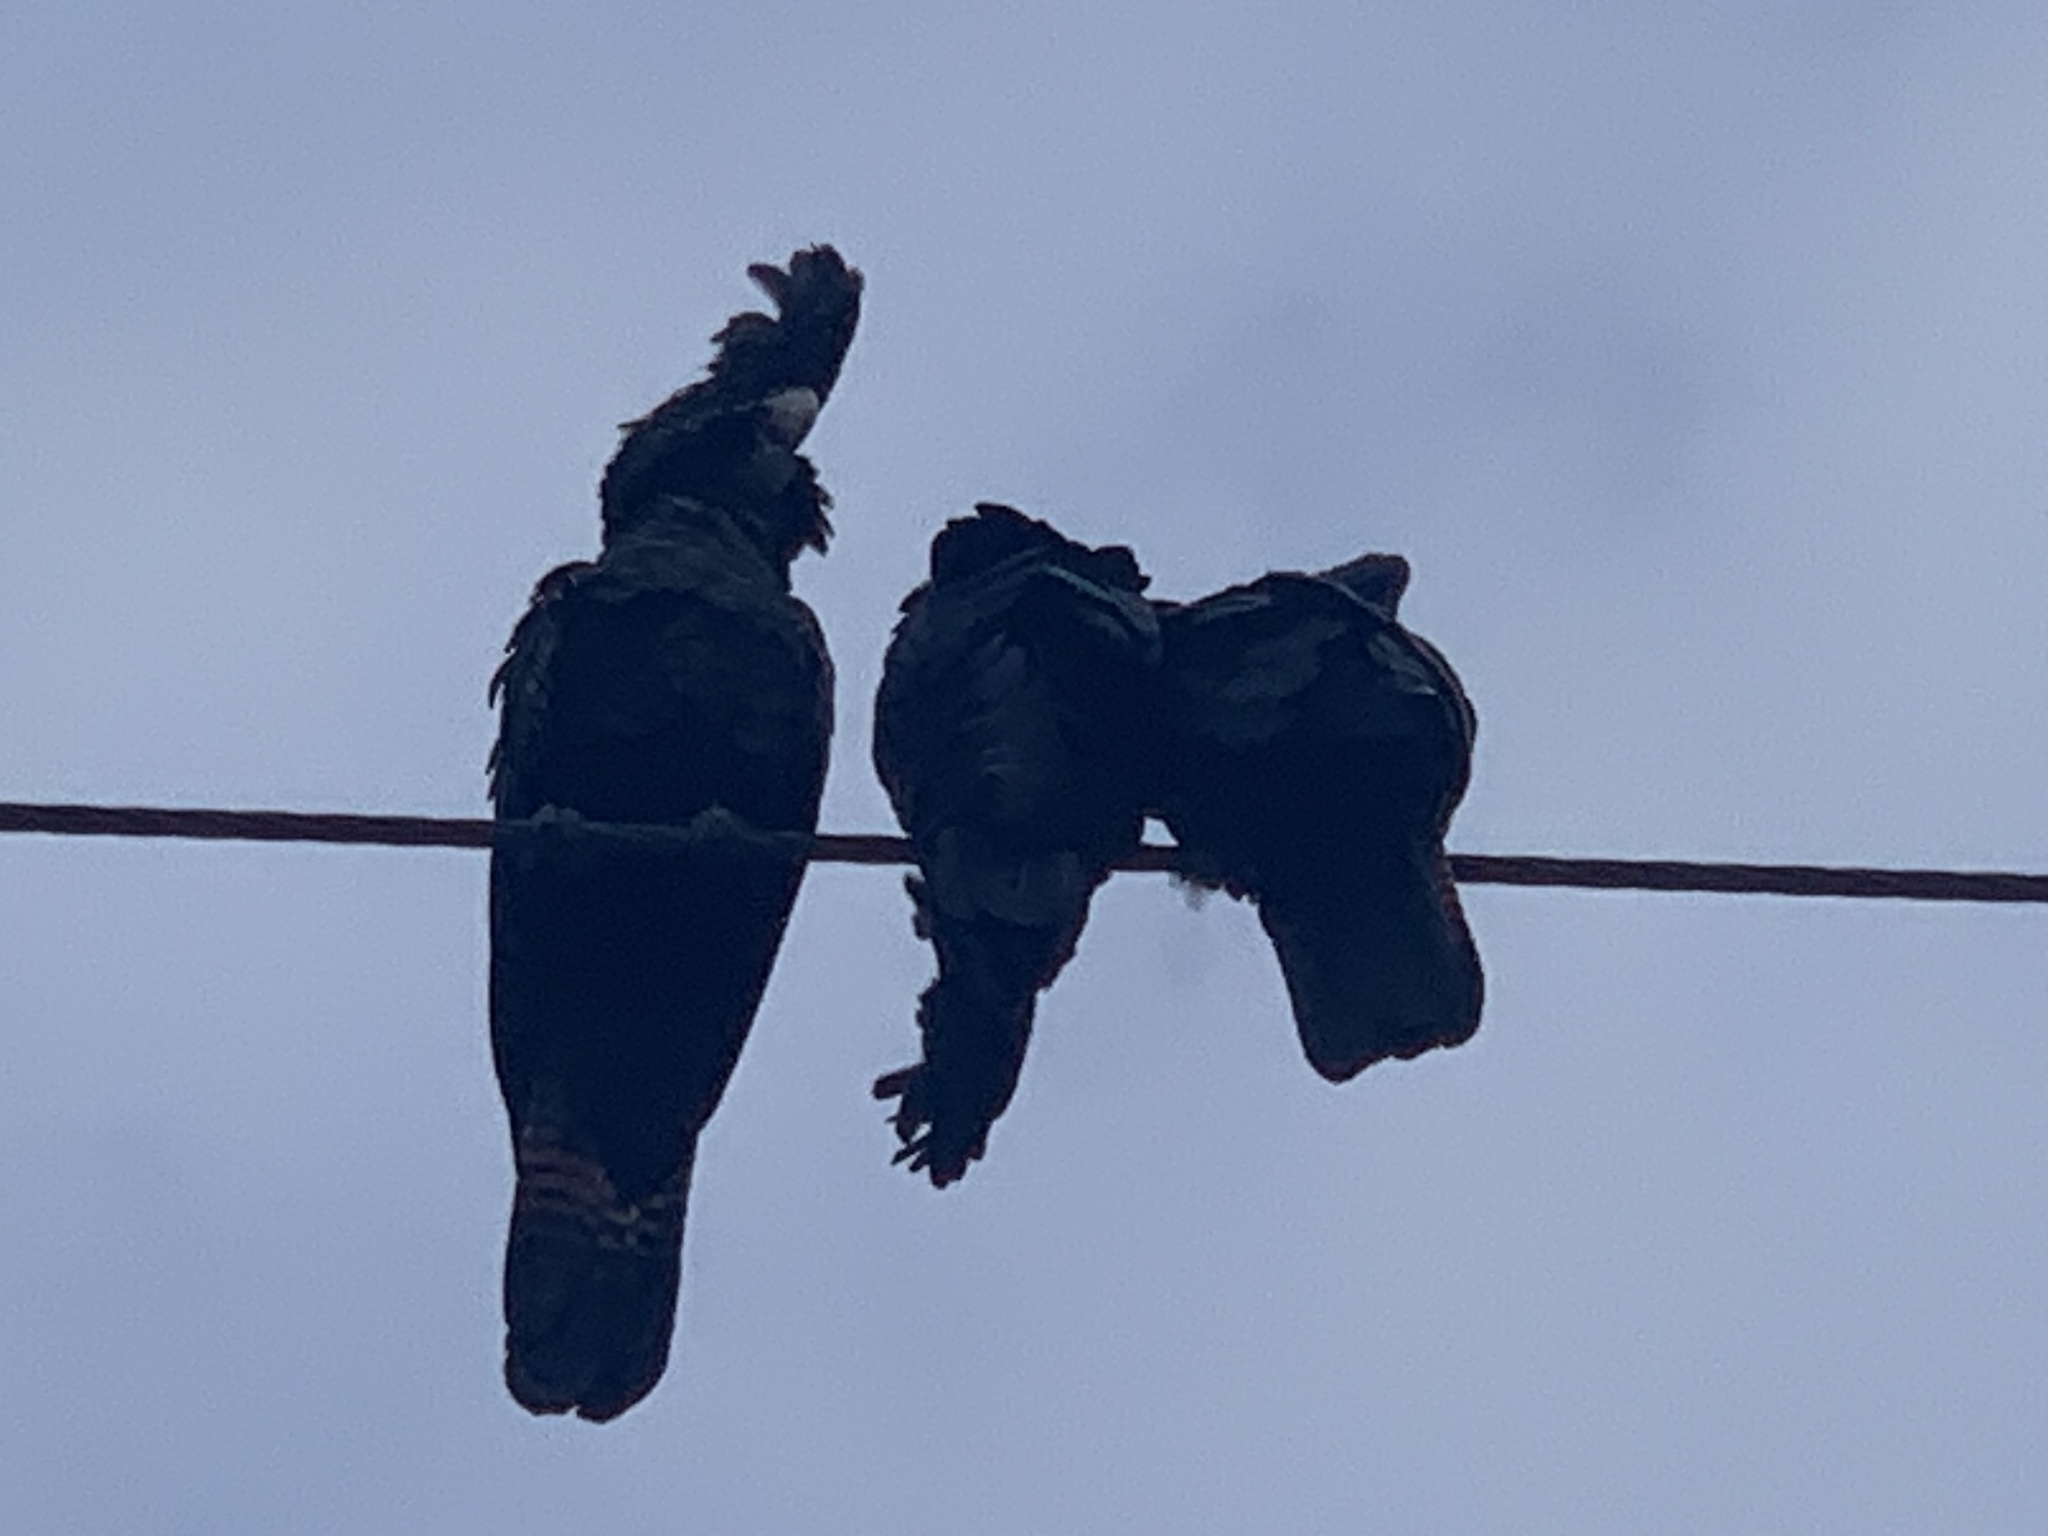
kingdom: Animalia
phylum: Chordata
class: Aves
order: Psittaciformes
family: Psittacidae
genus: Calyptorhynchus
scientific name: Calyptorhynchus banksii
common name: Red-tailed black cockatoo
